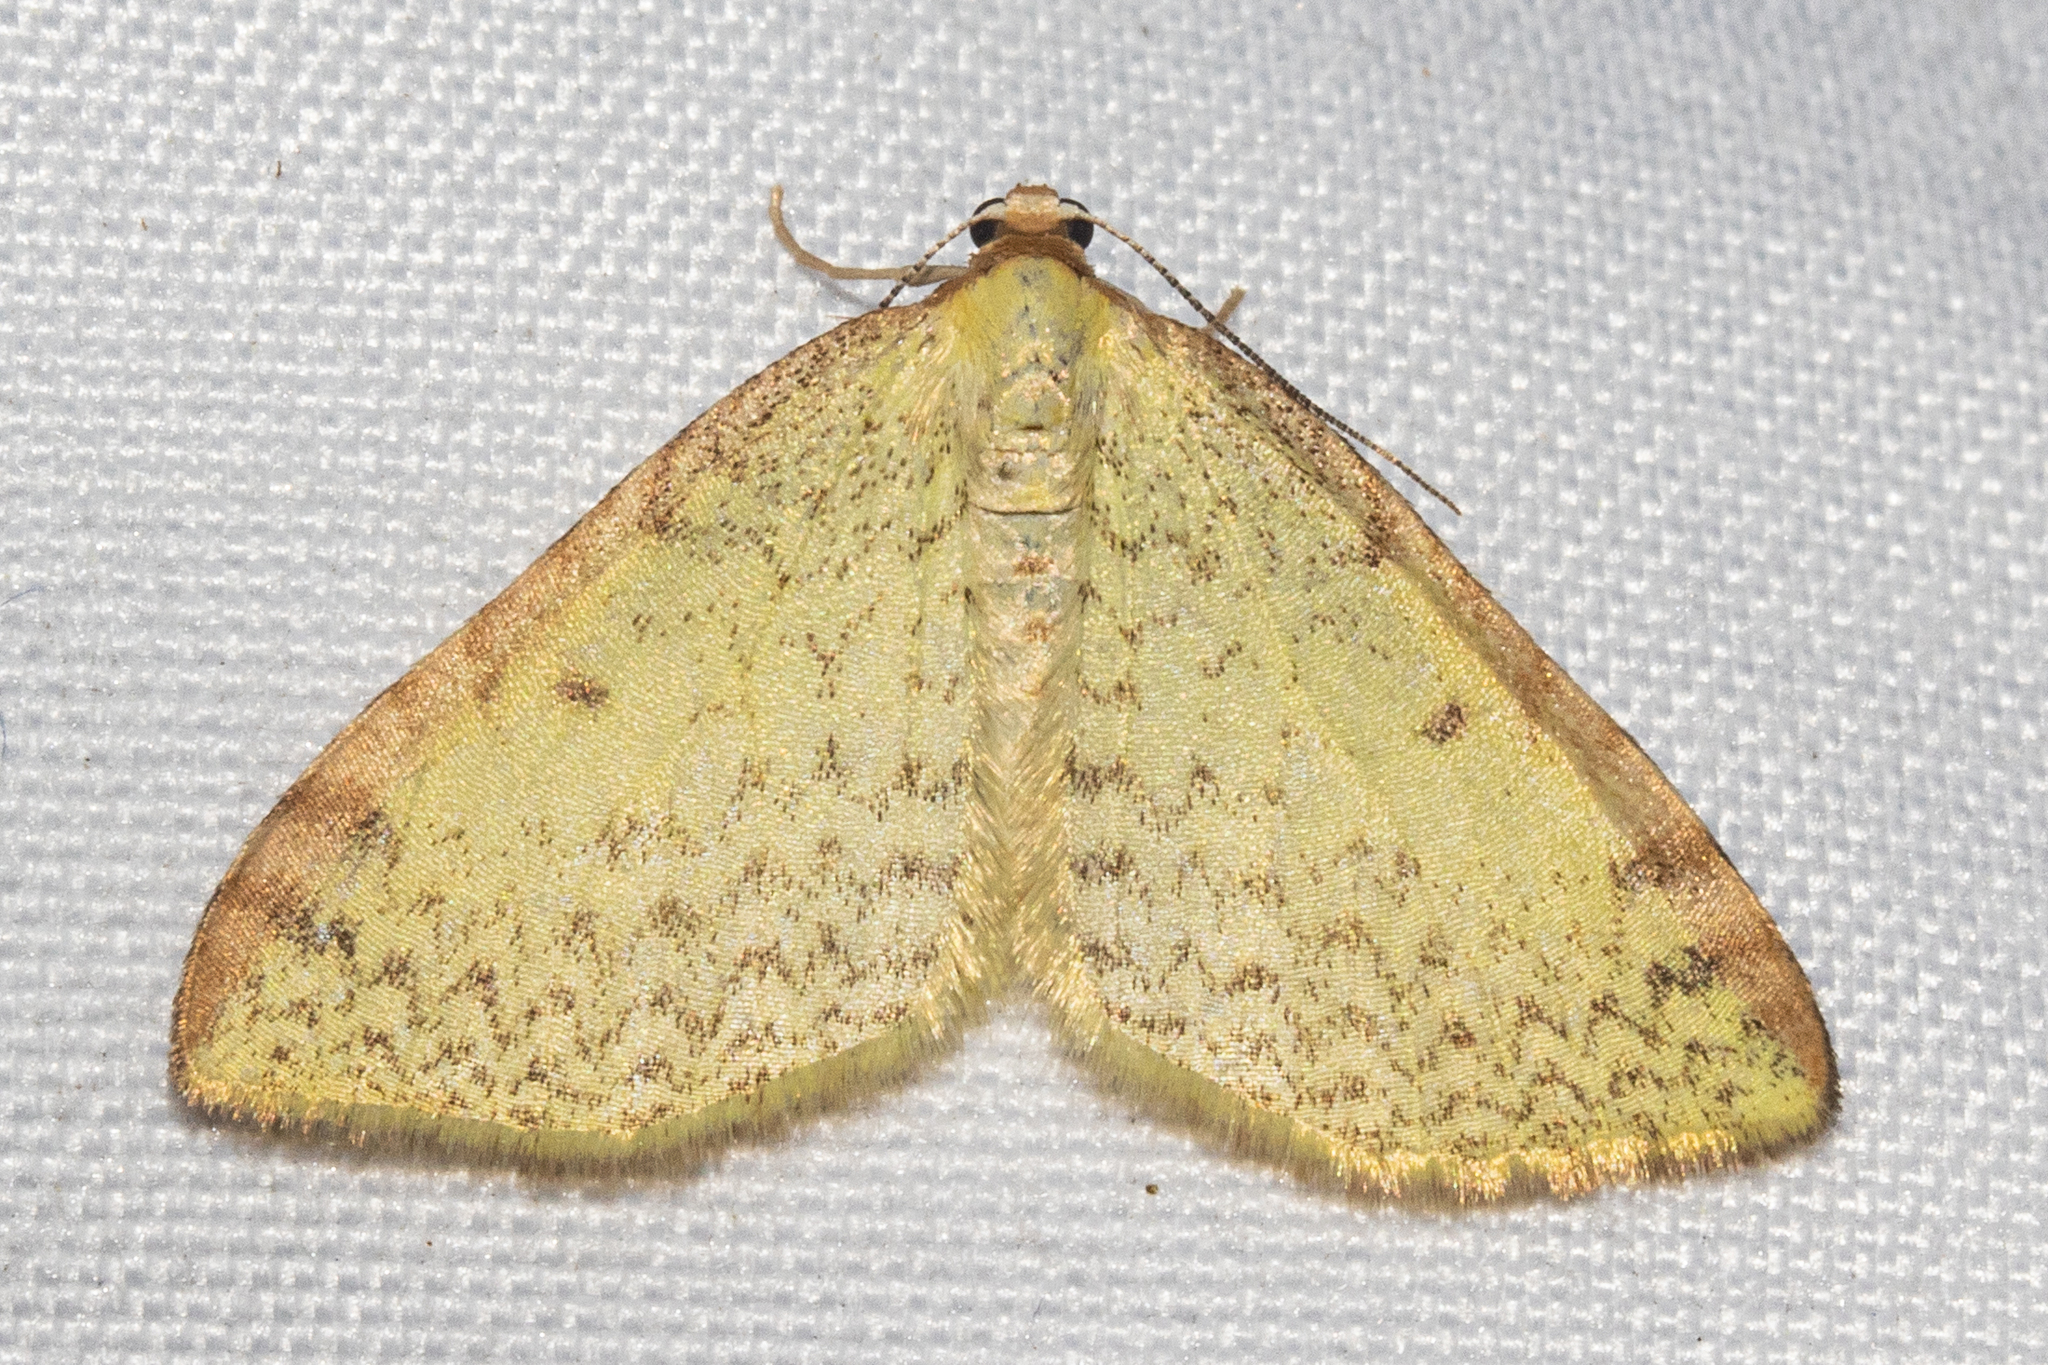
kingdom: Animalia
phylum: Arthropoda
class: Insecta
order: Lepidoptera
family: Geometridae
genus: Epiphryne
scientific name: Epiphryne undosata
